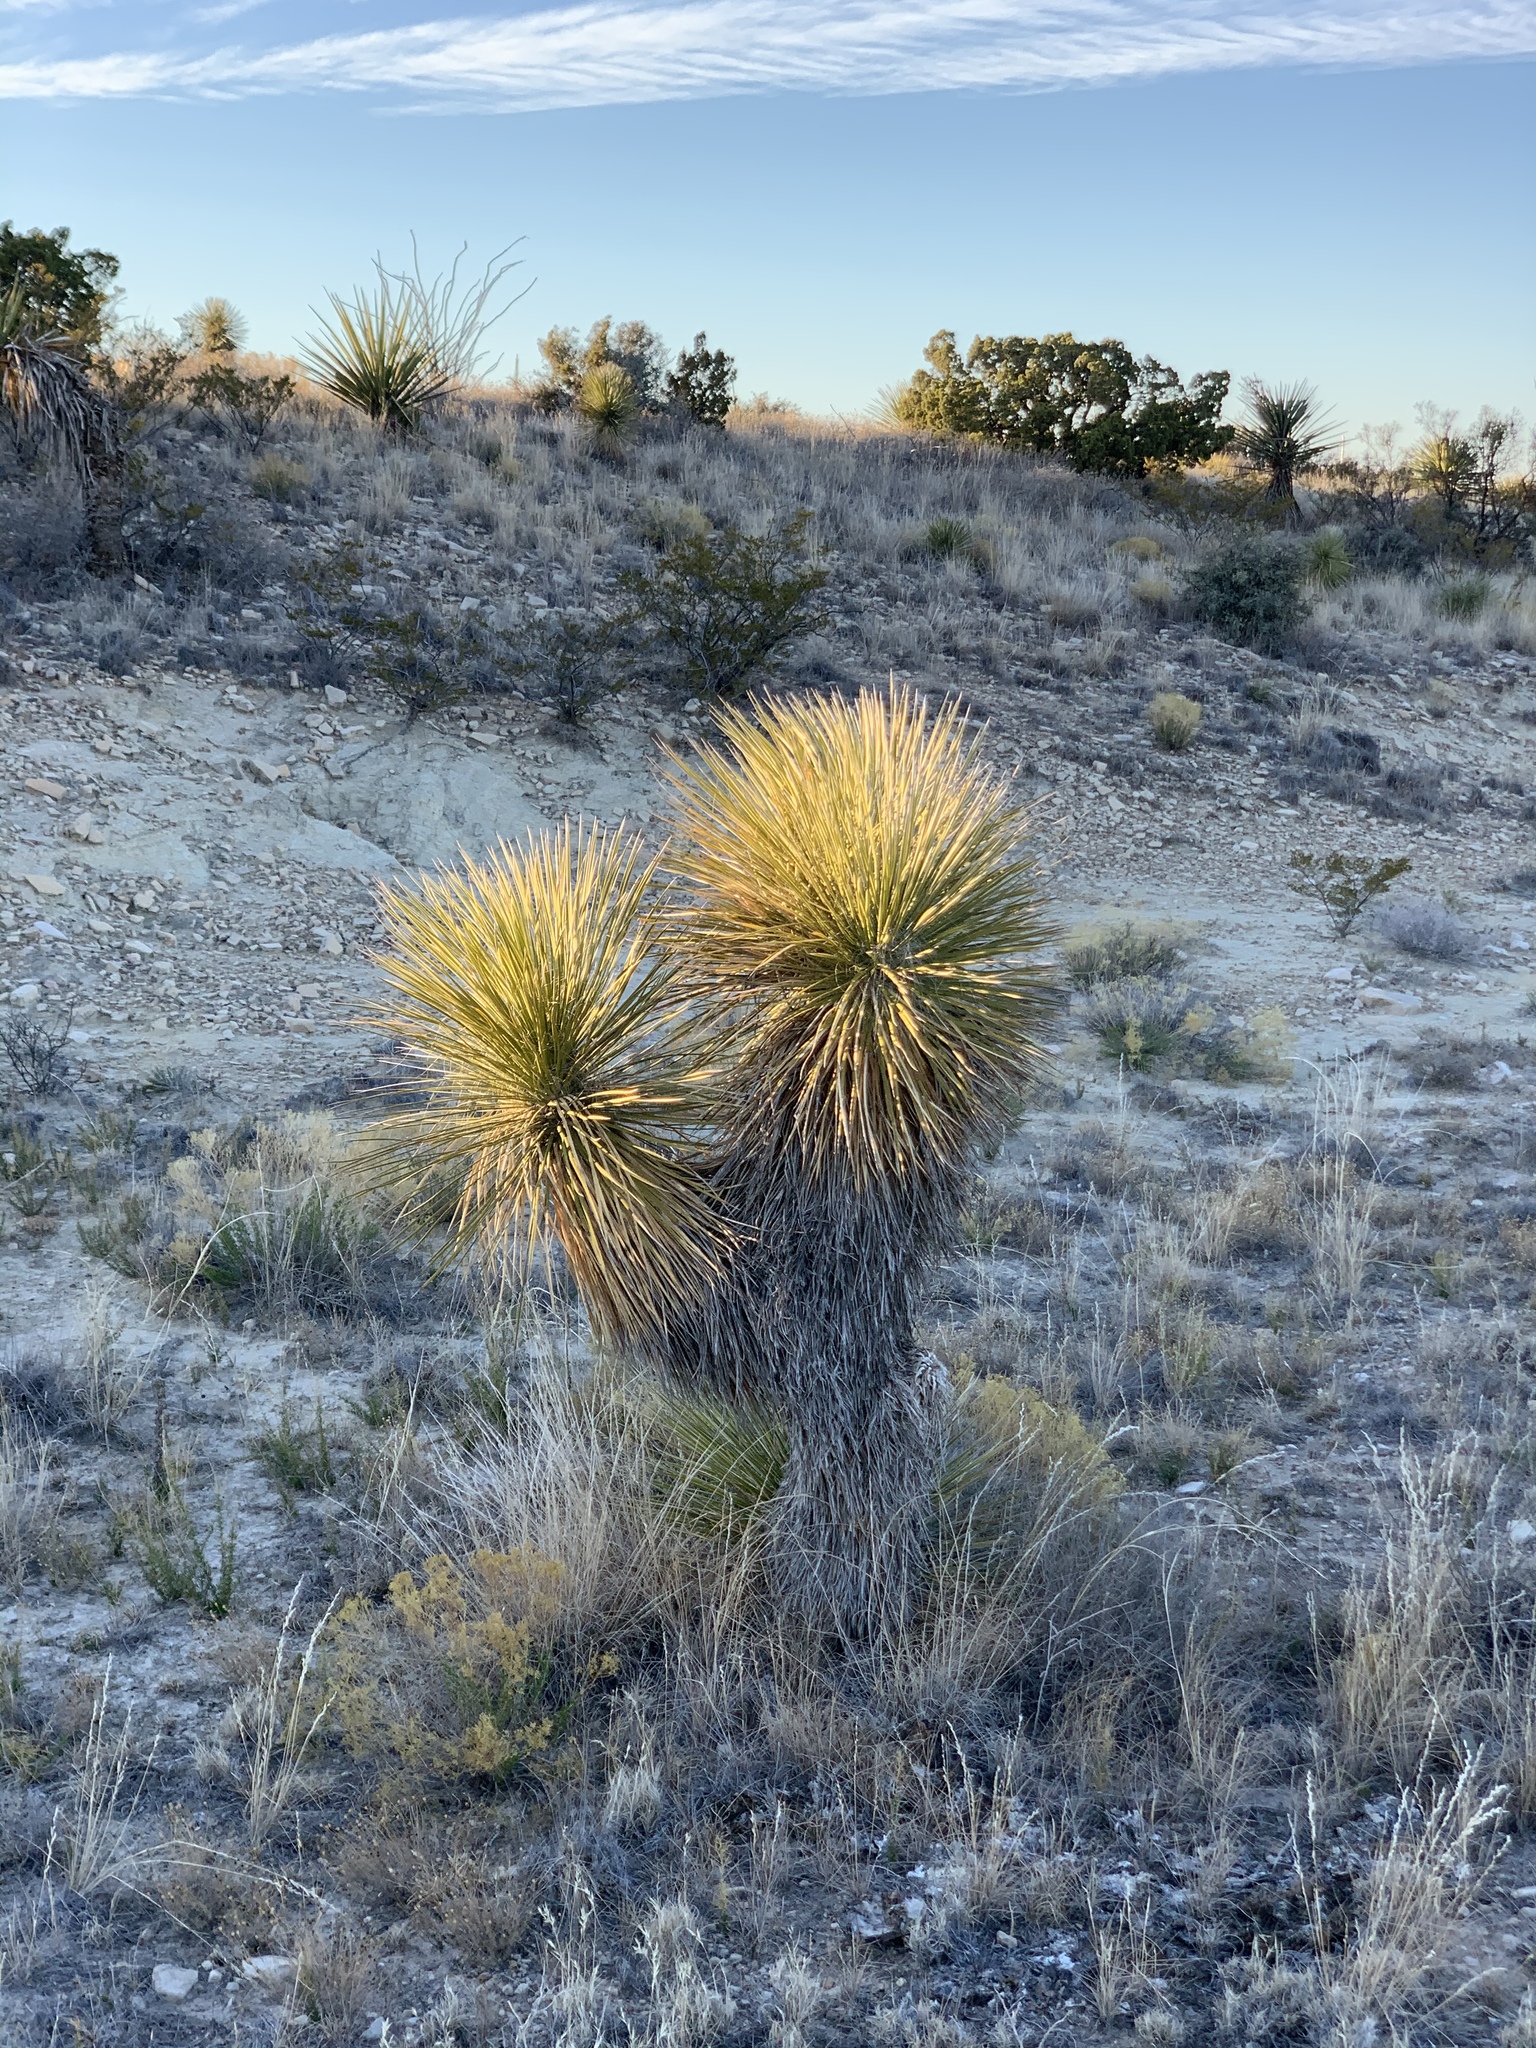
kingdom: Plantae
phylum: Tracheophyta
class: Liliopsida
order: Asparagales
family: Asparagaceae
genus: Yucca
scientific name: Yucca elata
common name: Palmella
